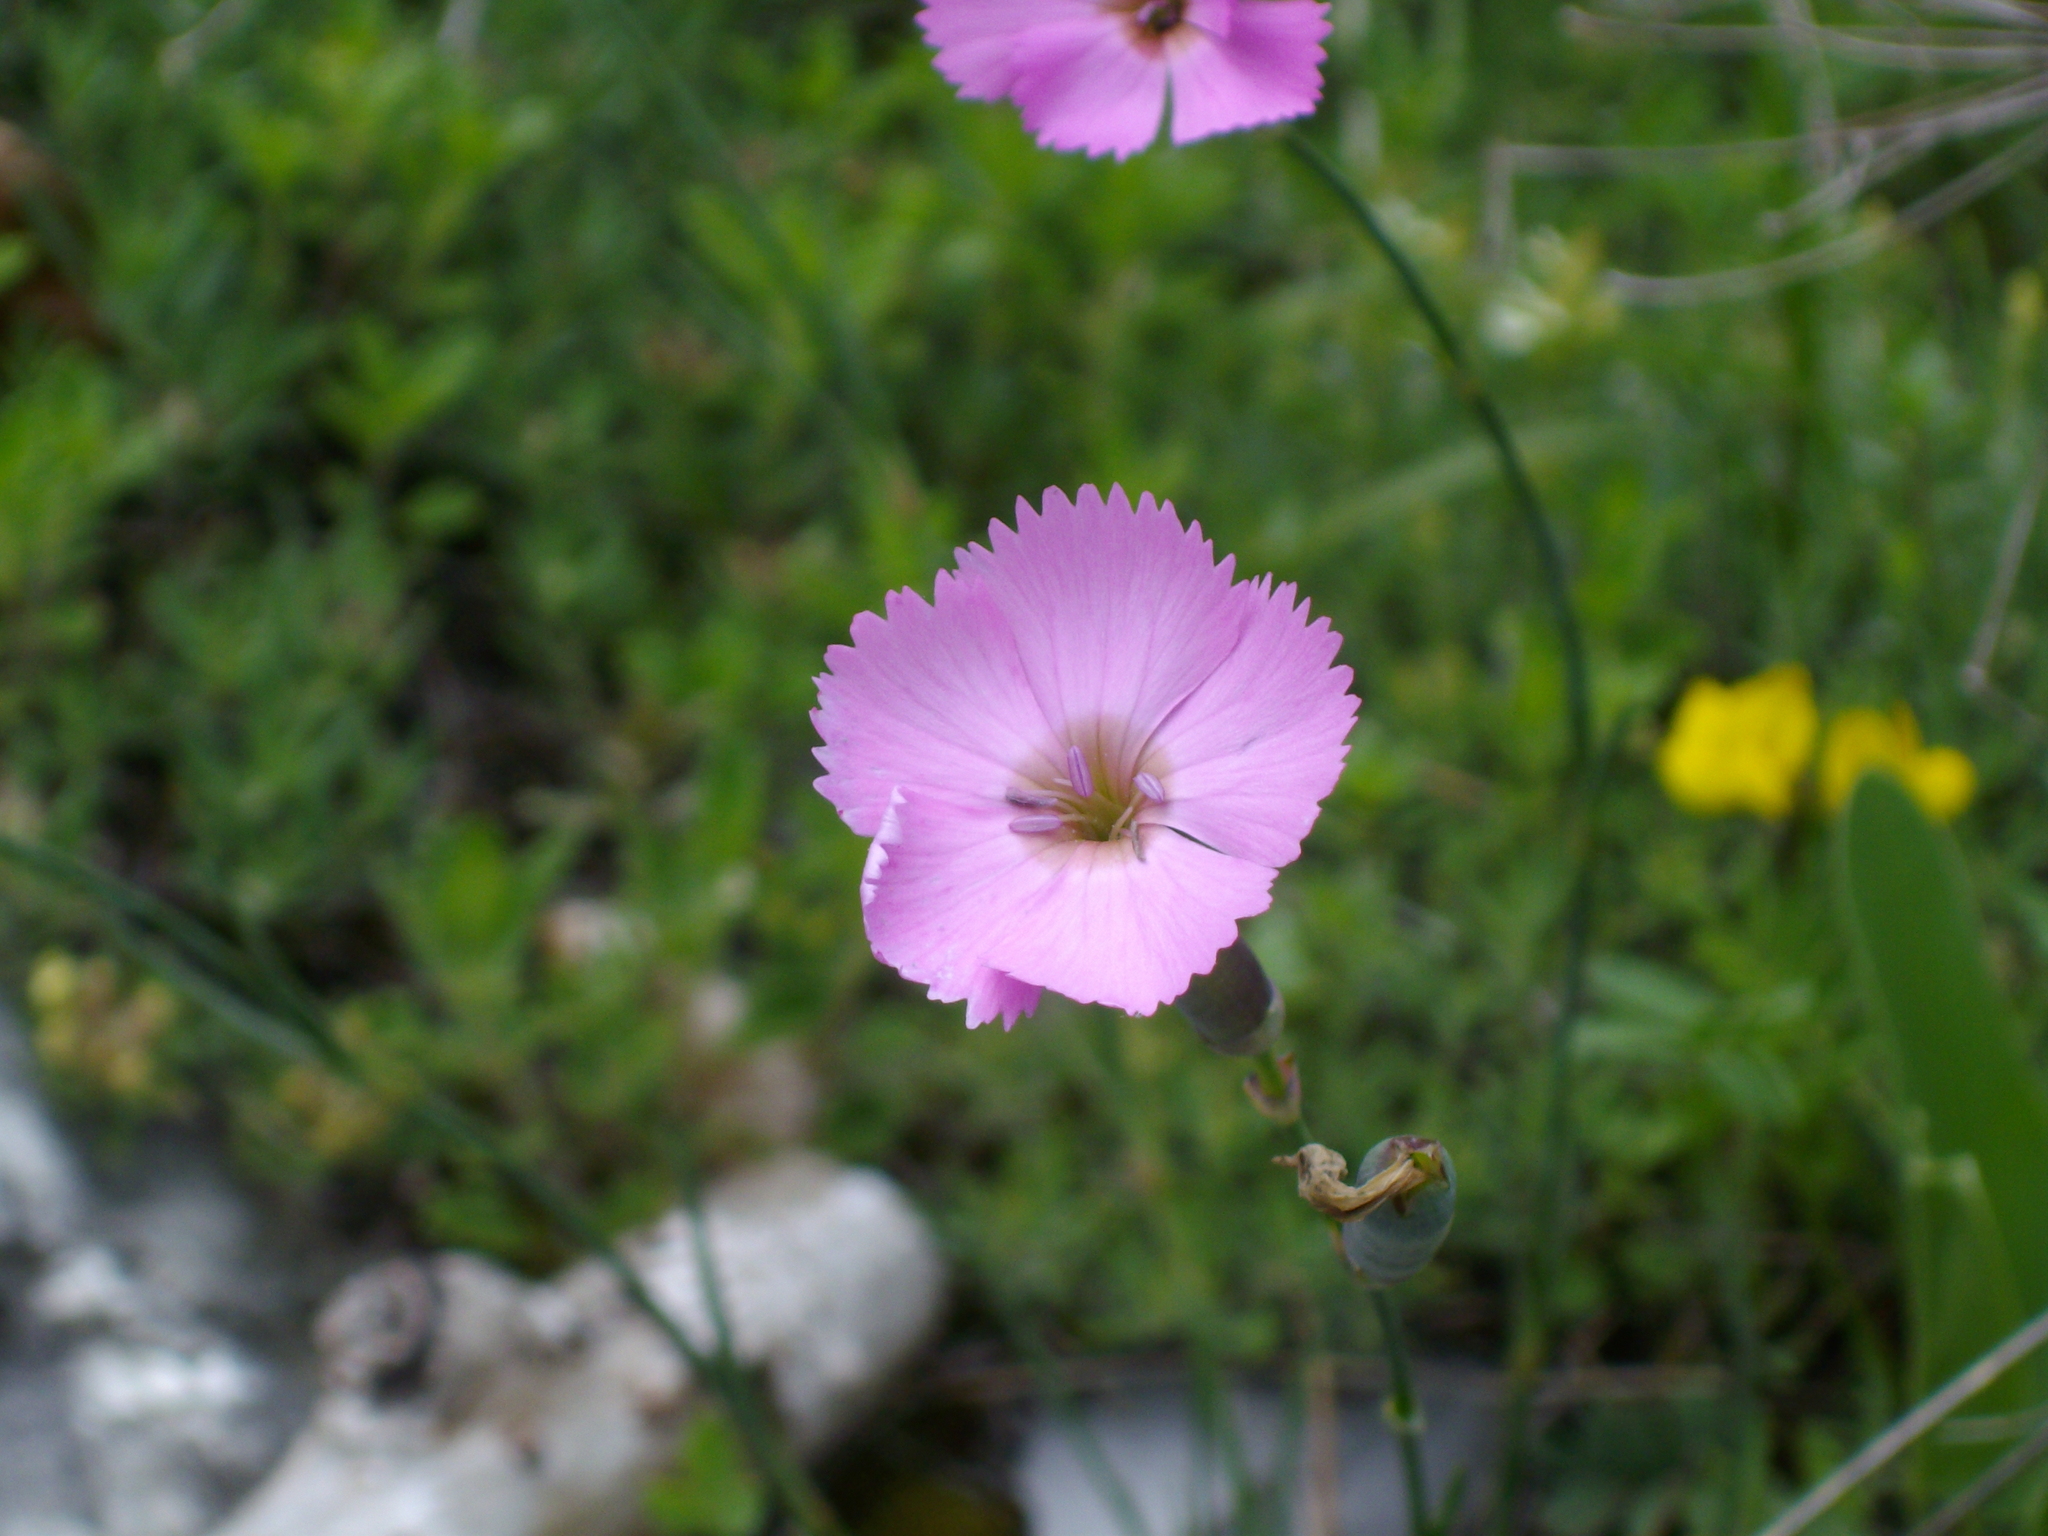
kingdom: Plantae
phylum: Tracheophyta
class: Magnoliopsida
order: Caryophyllales
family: Caryophyllaceae
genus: Dianthus
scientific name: Dianthus sylvestris
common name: Wood pink
